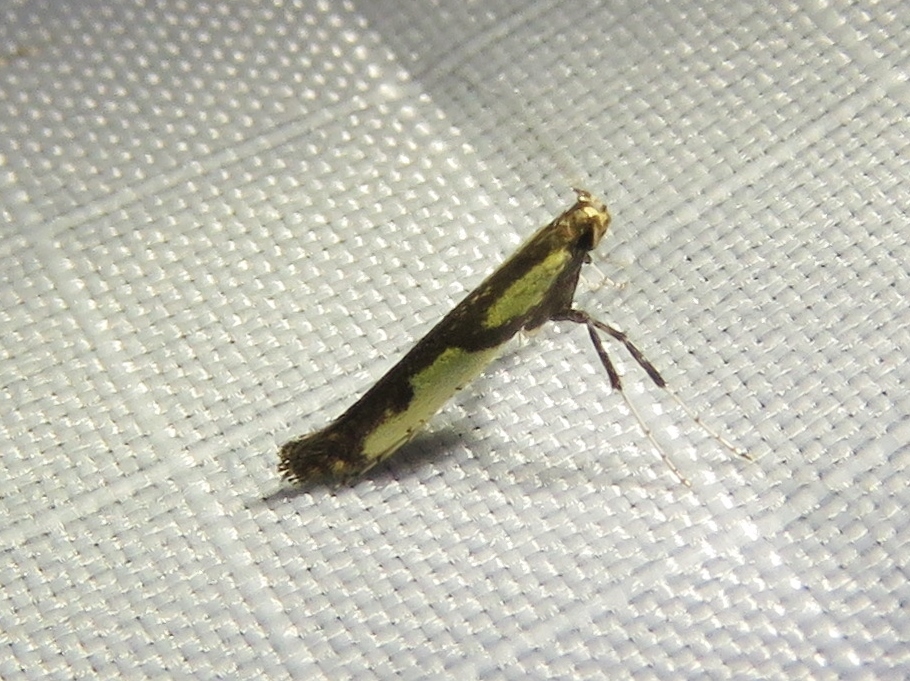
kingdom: Animalia
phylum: Arthropoda
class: Insecta
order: Lepidoptera
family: Gracillariidae
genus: Caloptilia
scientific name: Caloptilia blandella
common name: Walnut caloptilia moth
